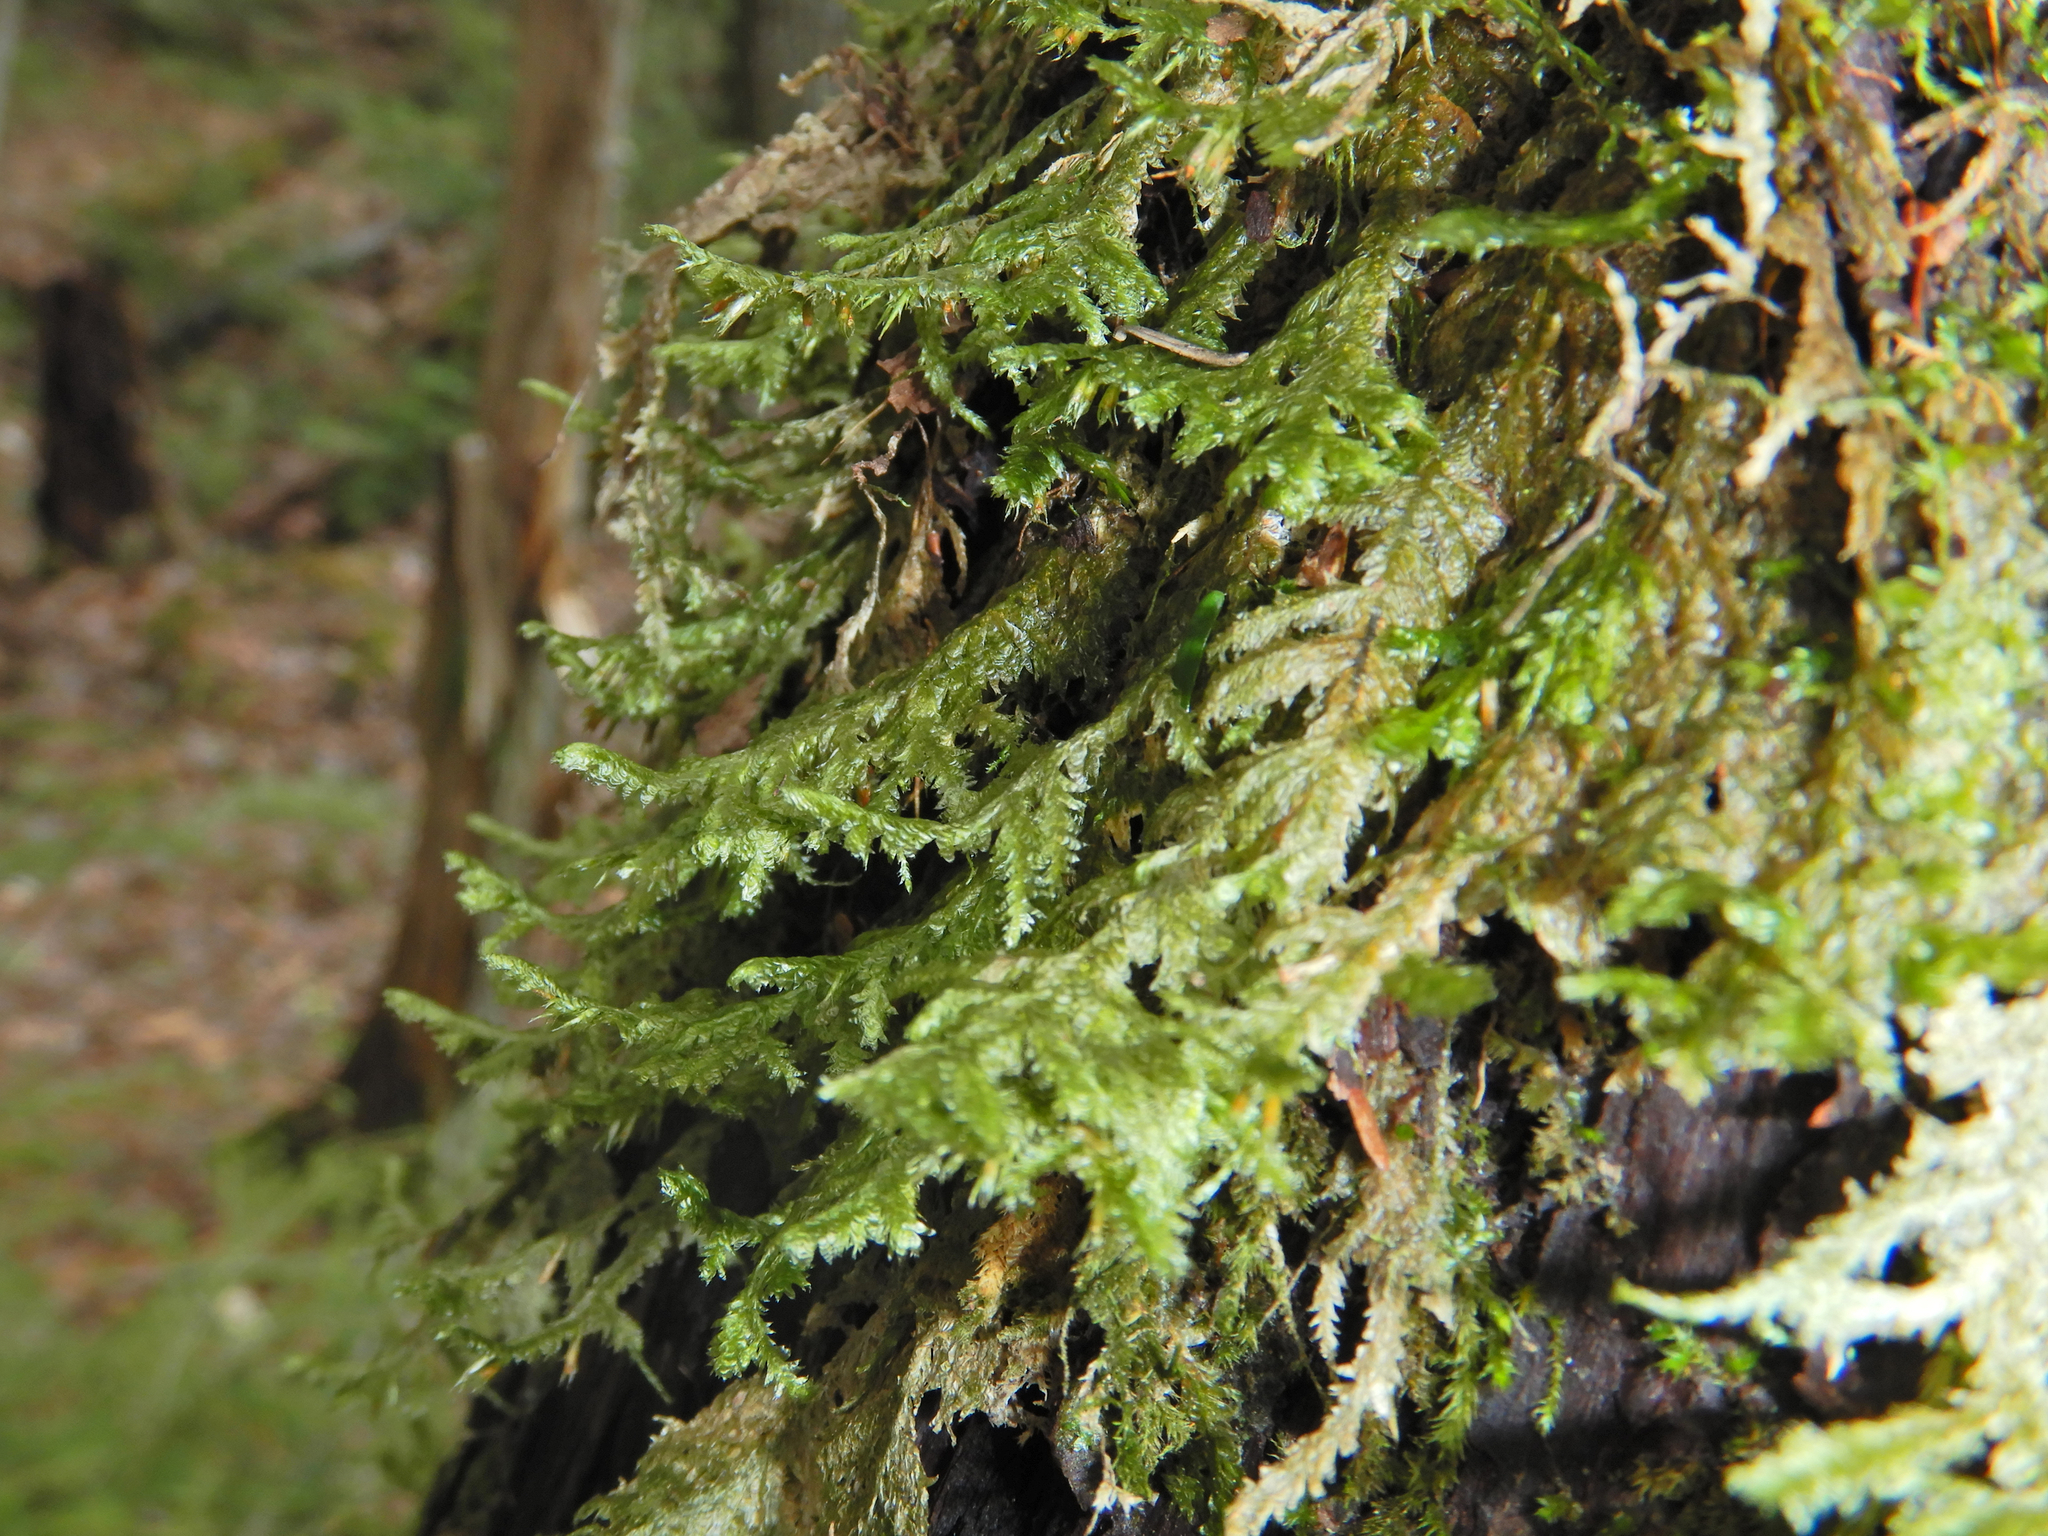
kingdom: Plantae
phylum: Bryophyta
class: Bryopsida
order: Hypnales
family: Neckeraceae
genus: Neckera
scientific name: Neckera pennata
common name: Feathery neckera
